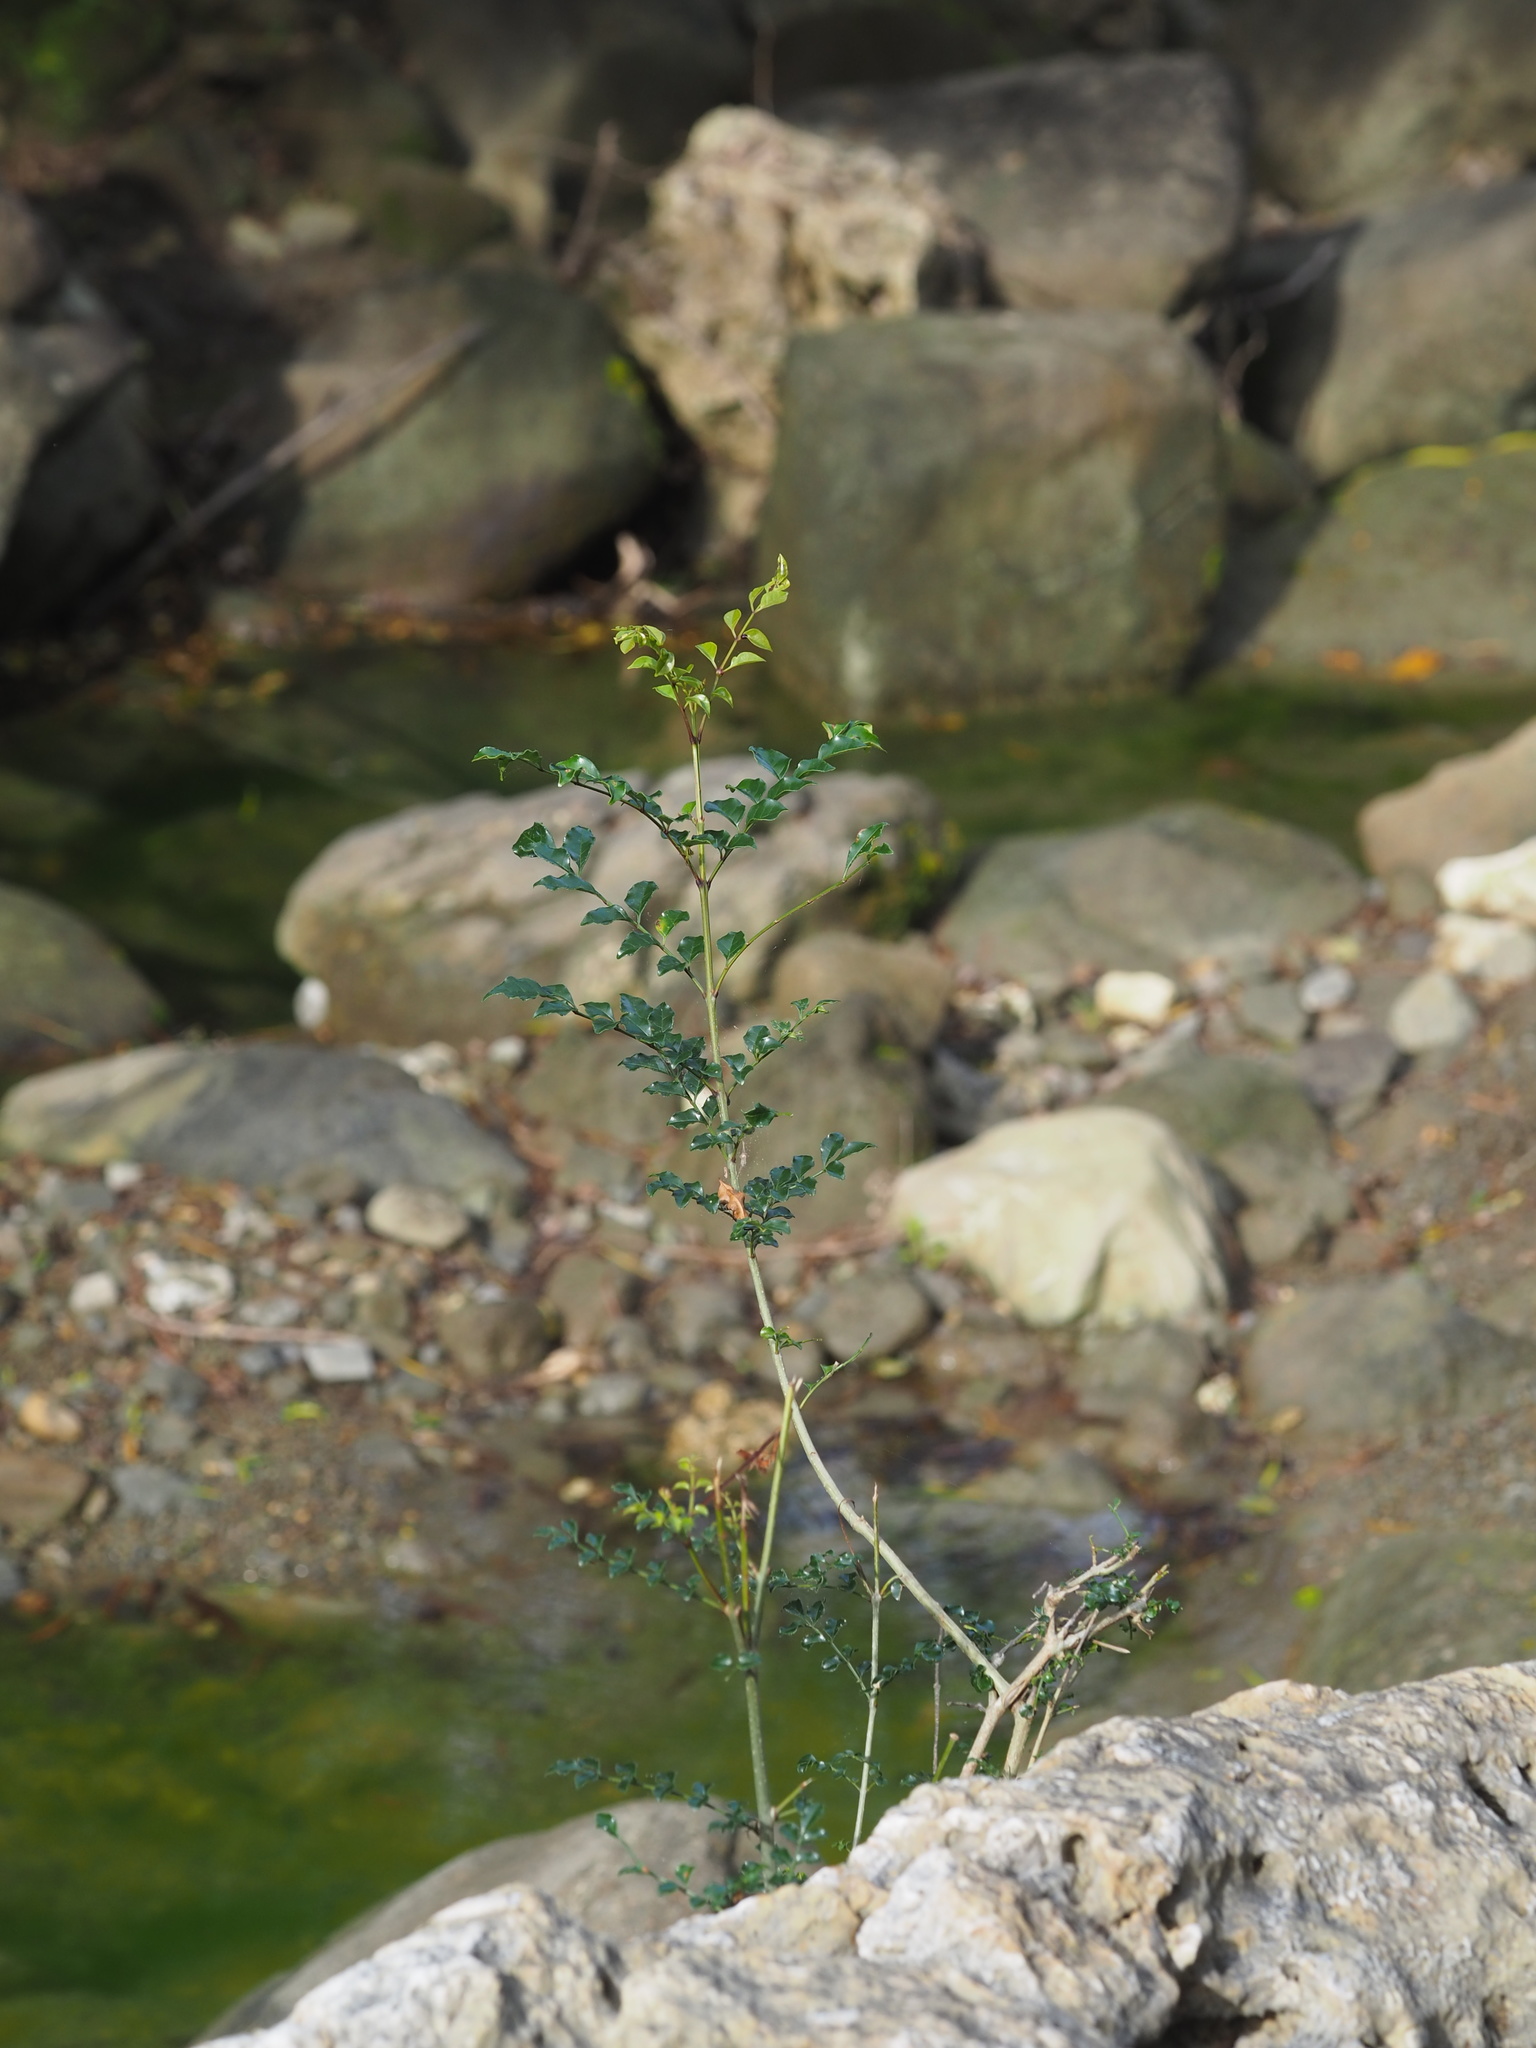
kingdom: Plantae
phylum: Tracheophyta
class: Magnoliopsida
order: Lamiales
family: Oleaceae
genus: Fraxinus
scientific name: Fraxinus griffithii
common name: Himalayan ash
